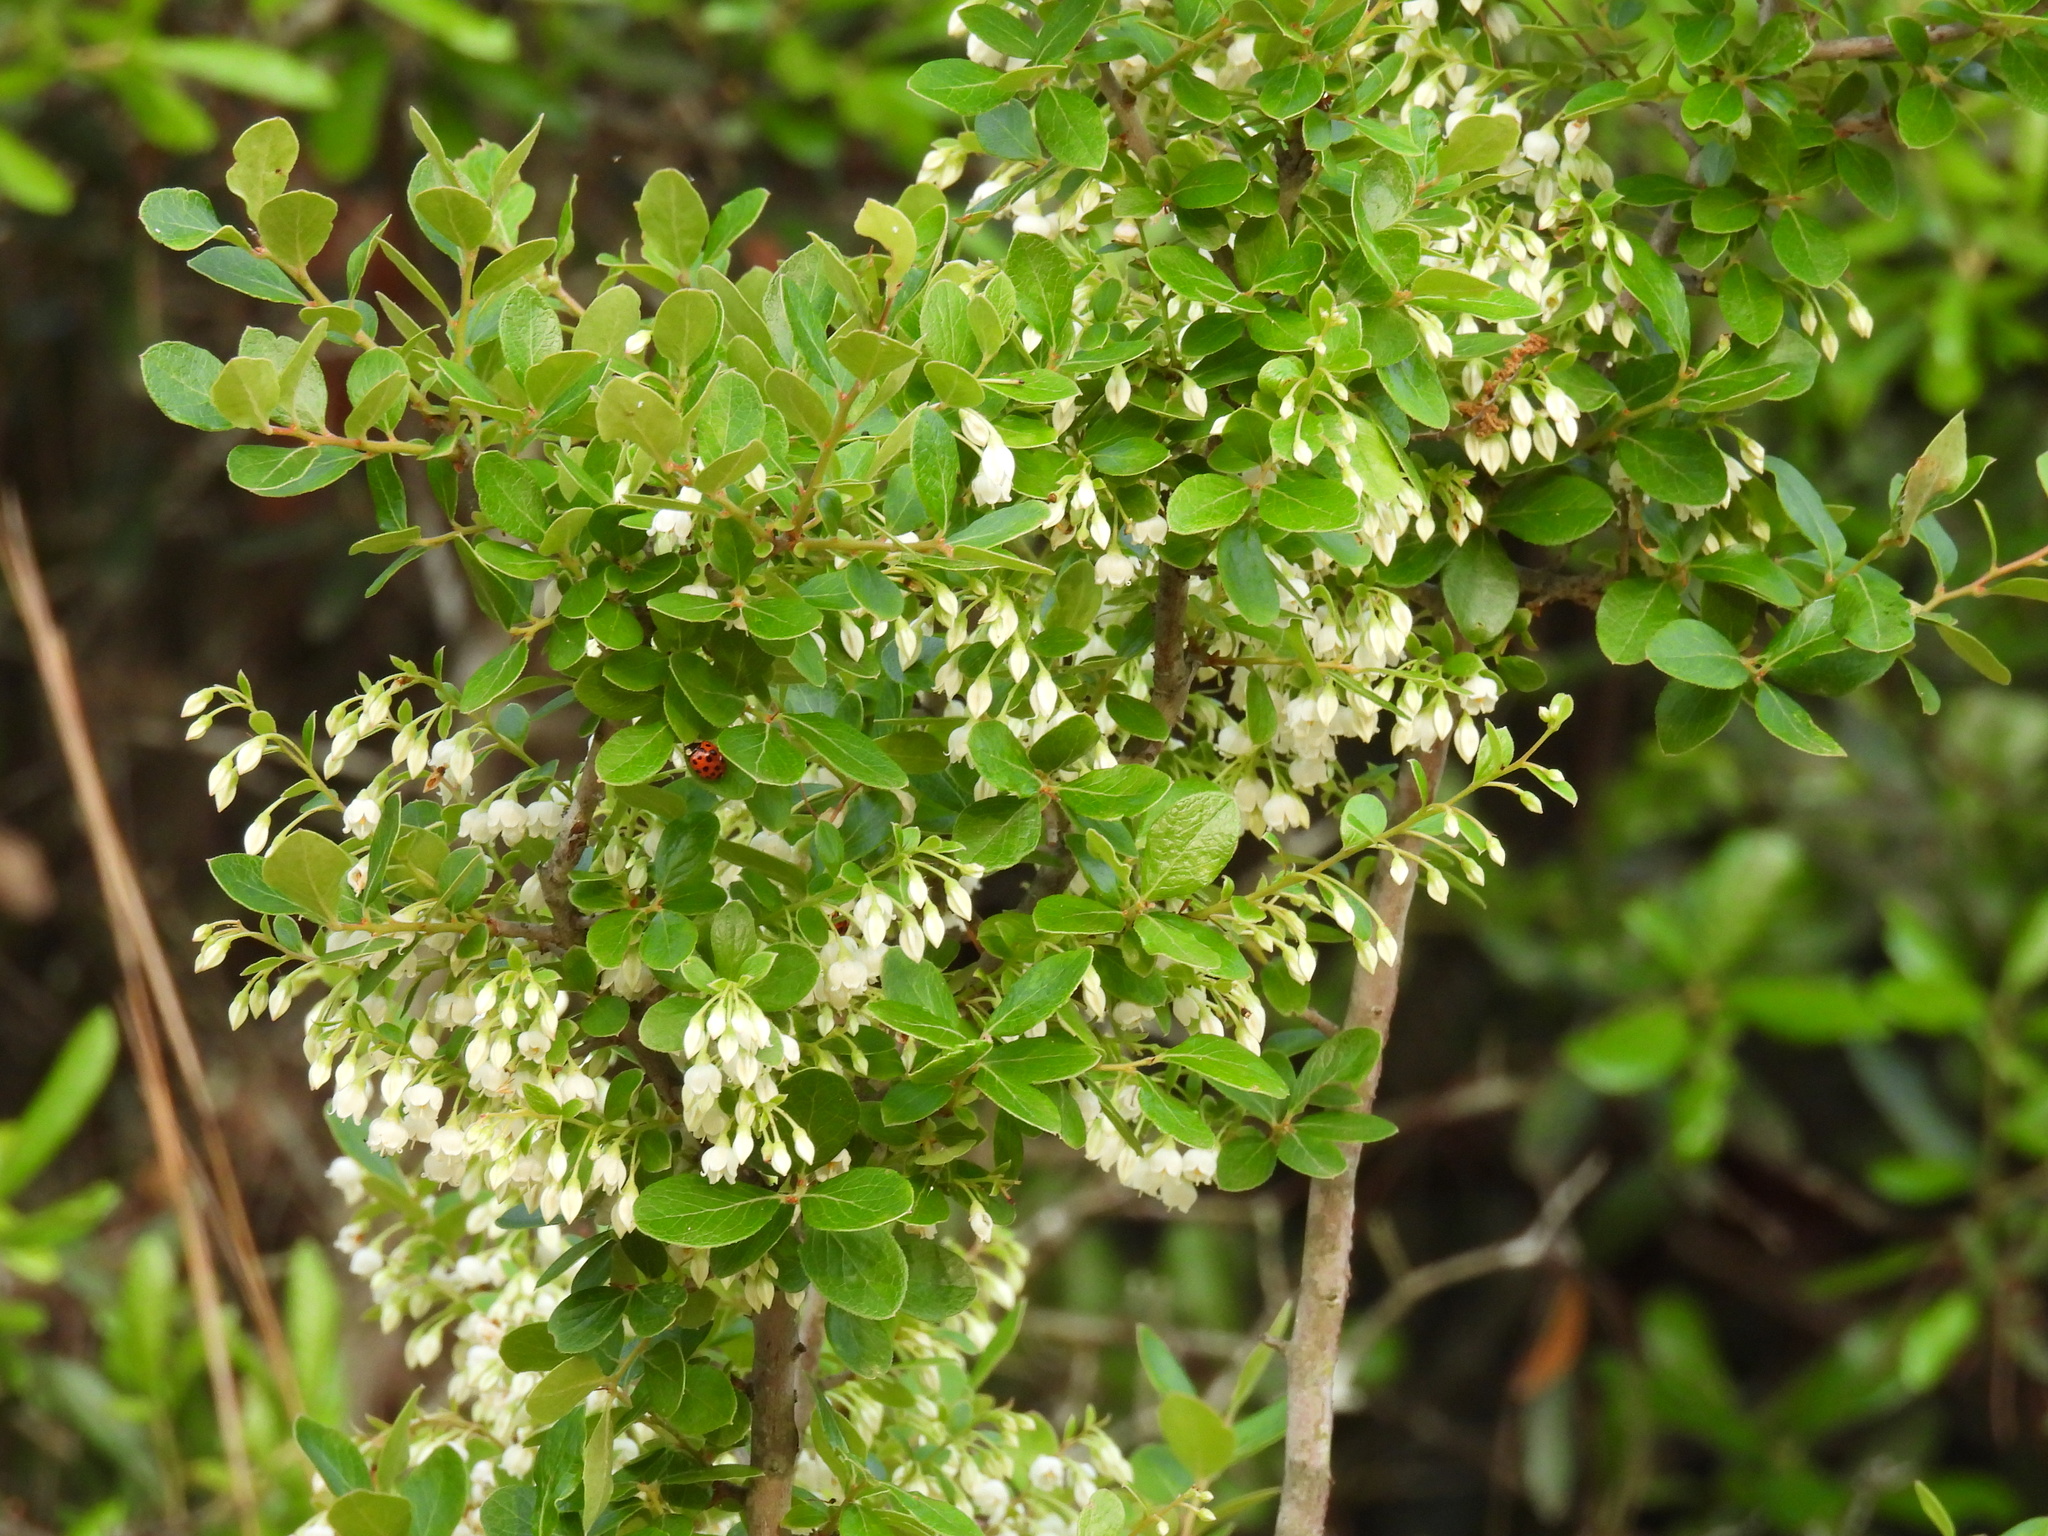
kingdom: Plantae
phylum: Tracheophyta
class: Magnoliopsida
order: Ericales
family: Ericaceae
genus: Vaccinium
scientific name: Vaccinium arboreum
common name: Farkleberry
